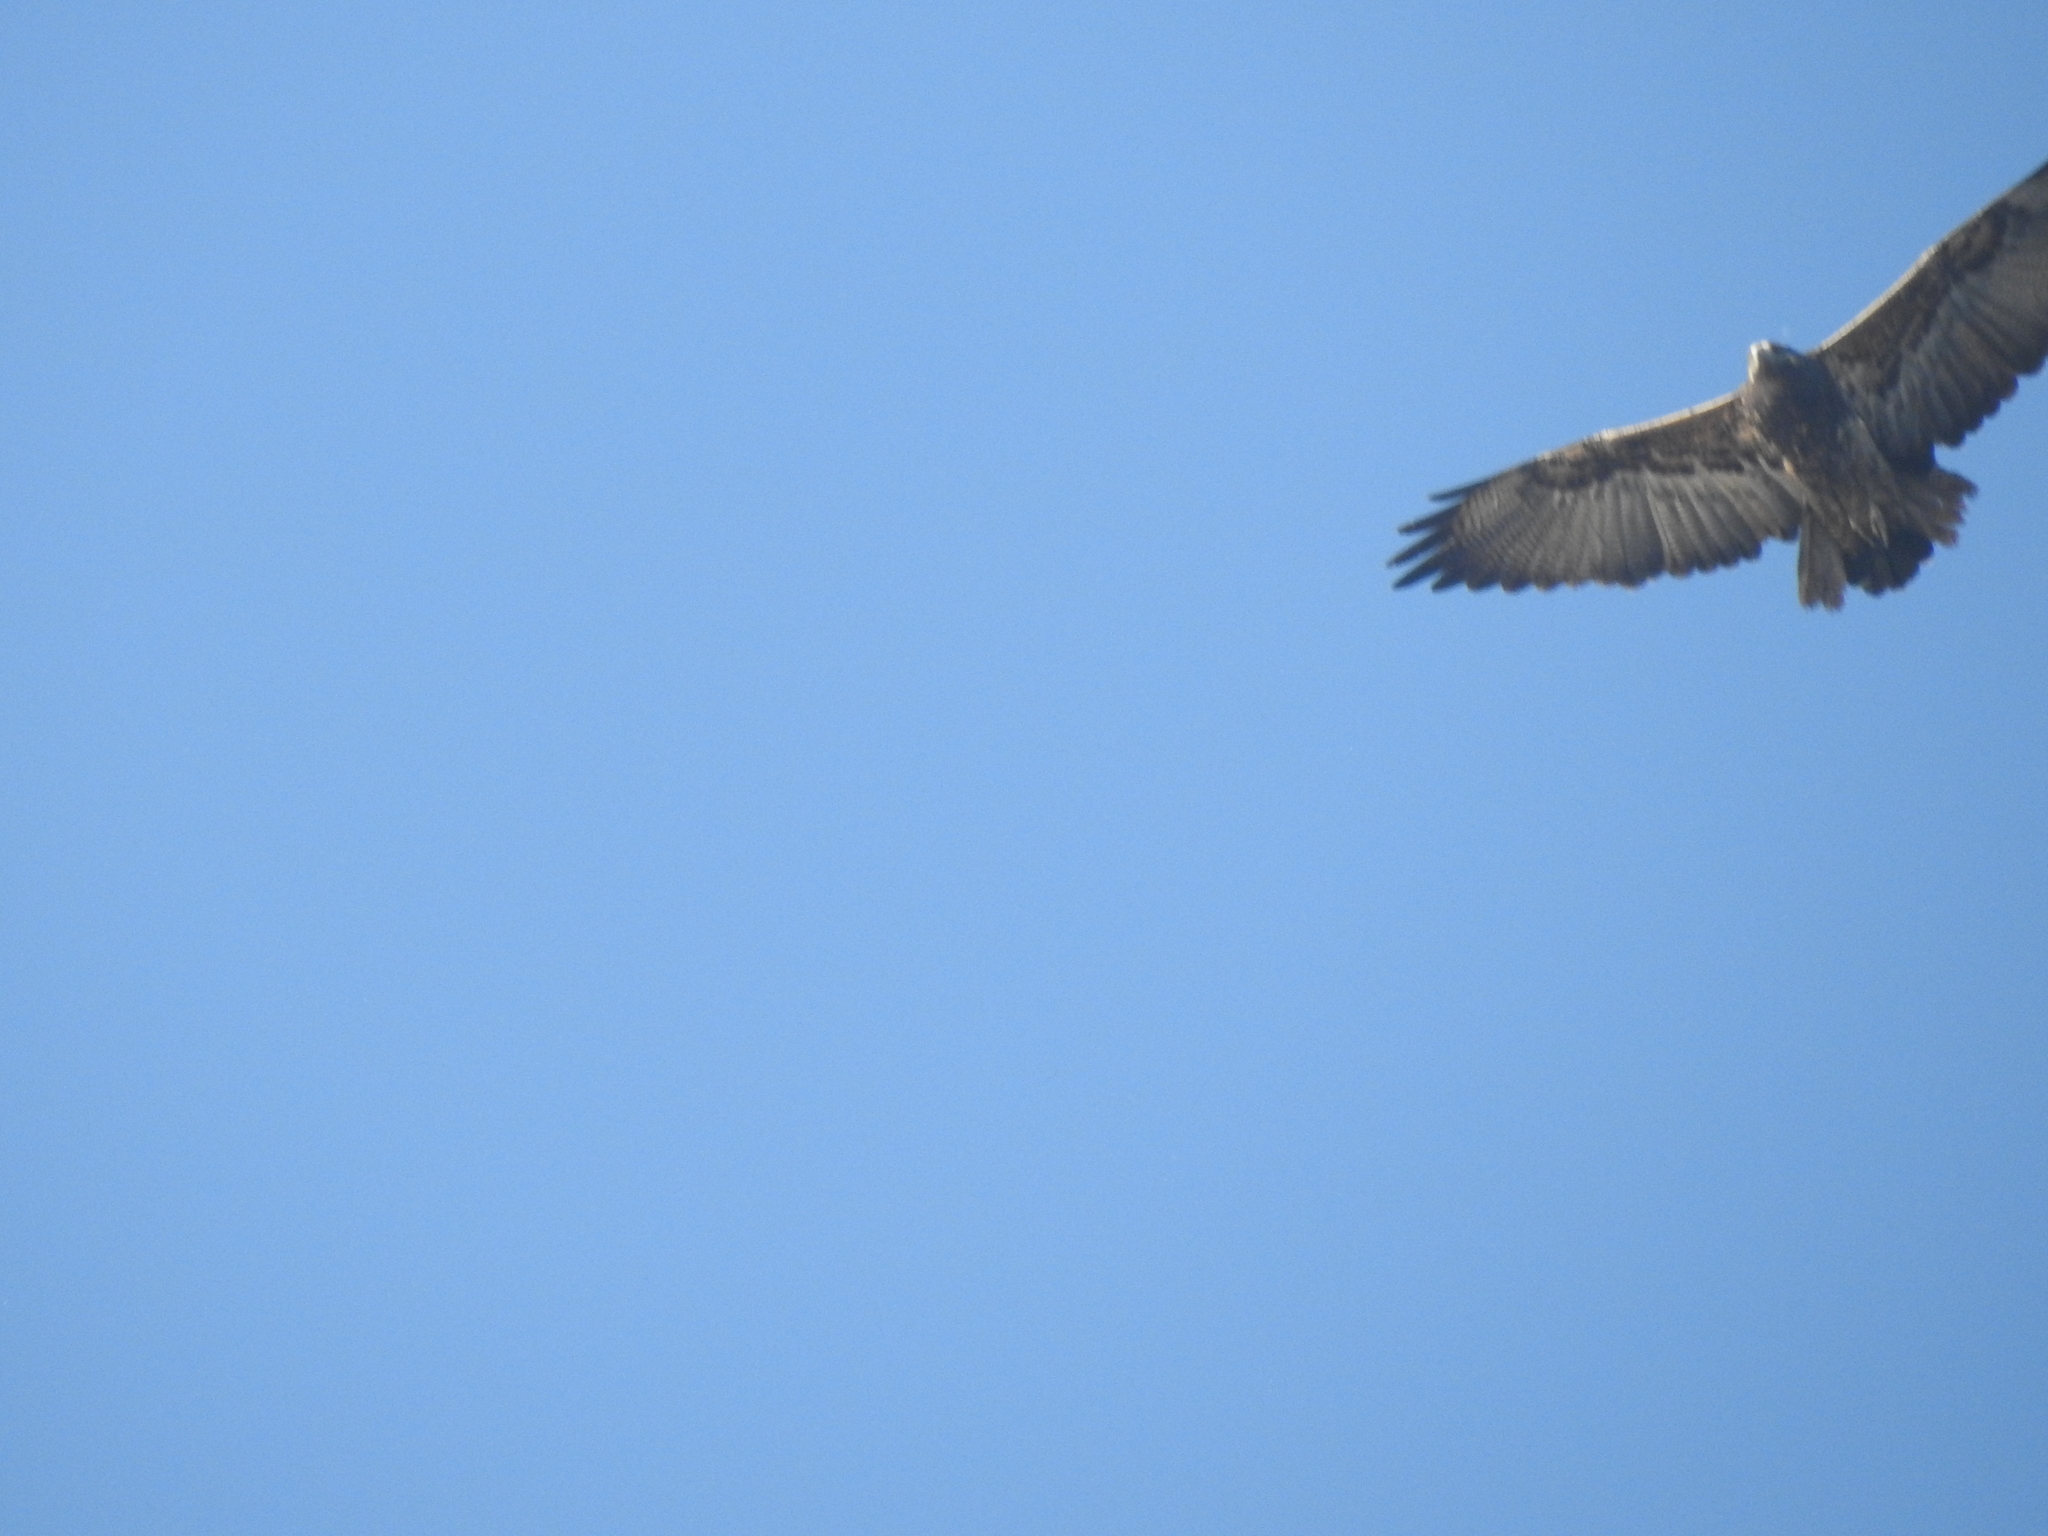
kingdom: Animalia
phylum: Chordata
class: Aves
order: Accipitriformes
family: Accipitridae
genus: Geranoaetus
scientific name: Geranoaetus melanoleucus
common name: Black-chested buzzard-eagle
